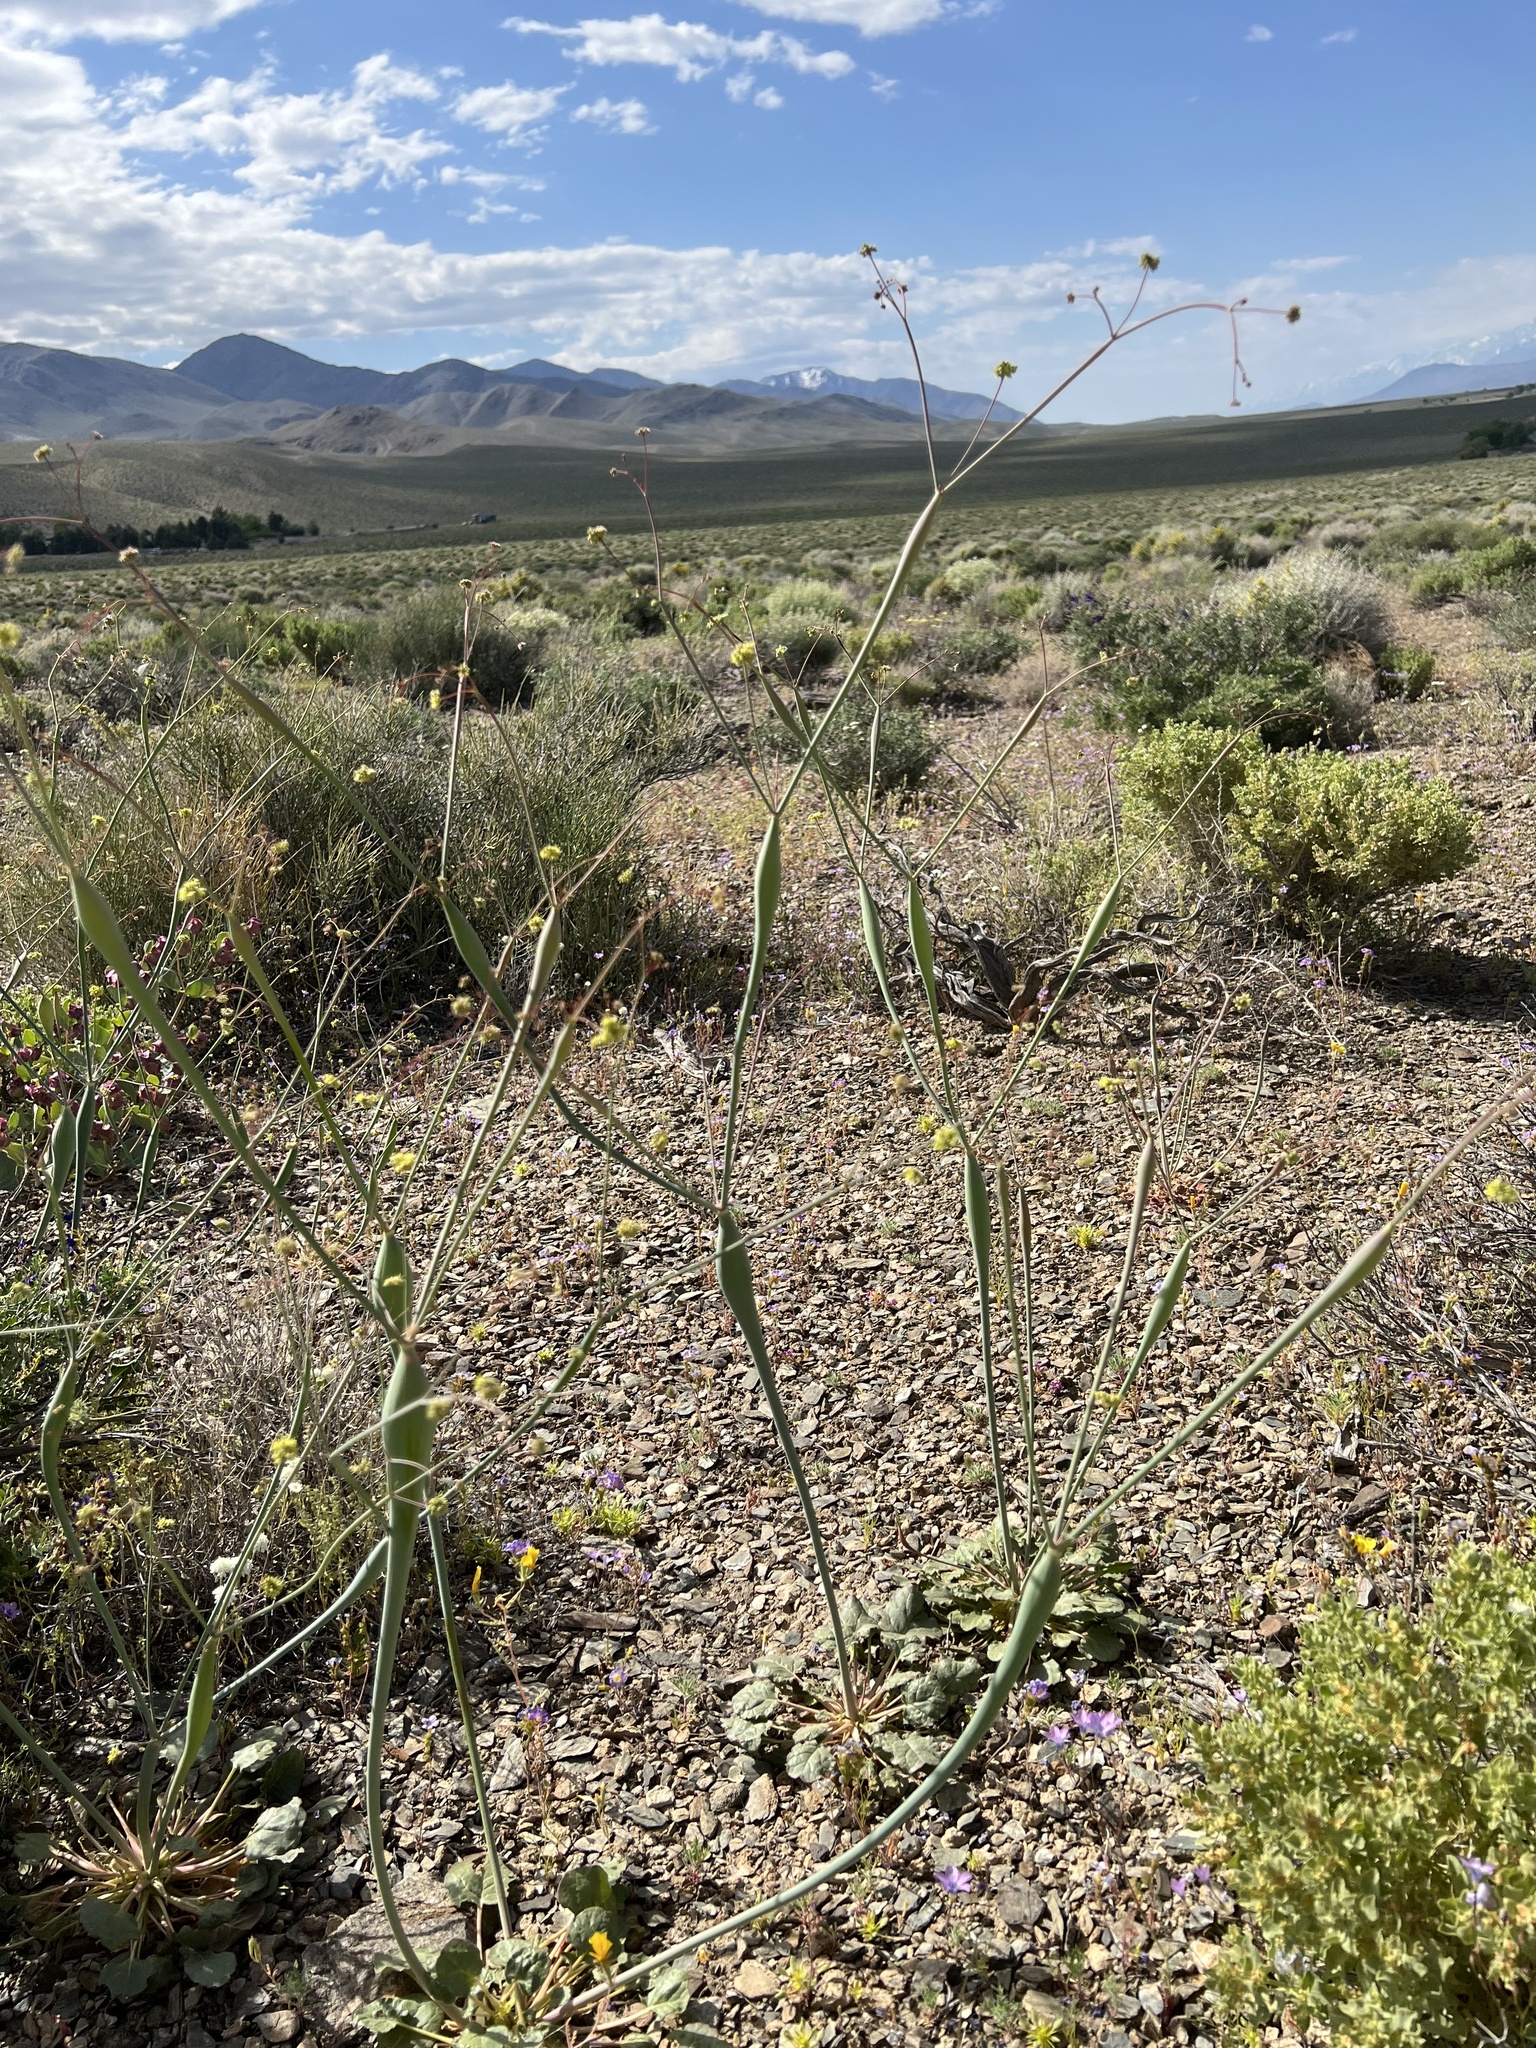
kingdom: Plantae
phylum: Tracheophyta
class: Magnoliopsida
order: Caryophyllales
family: Polygonaceae
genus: Eriogonum
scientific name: Eriogonum inflatum
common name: Desert trumpet
